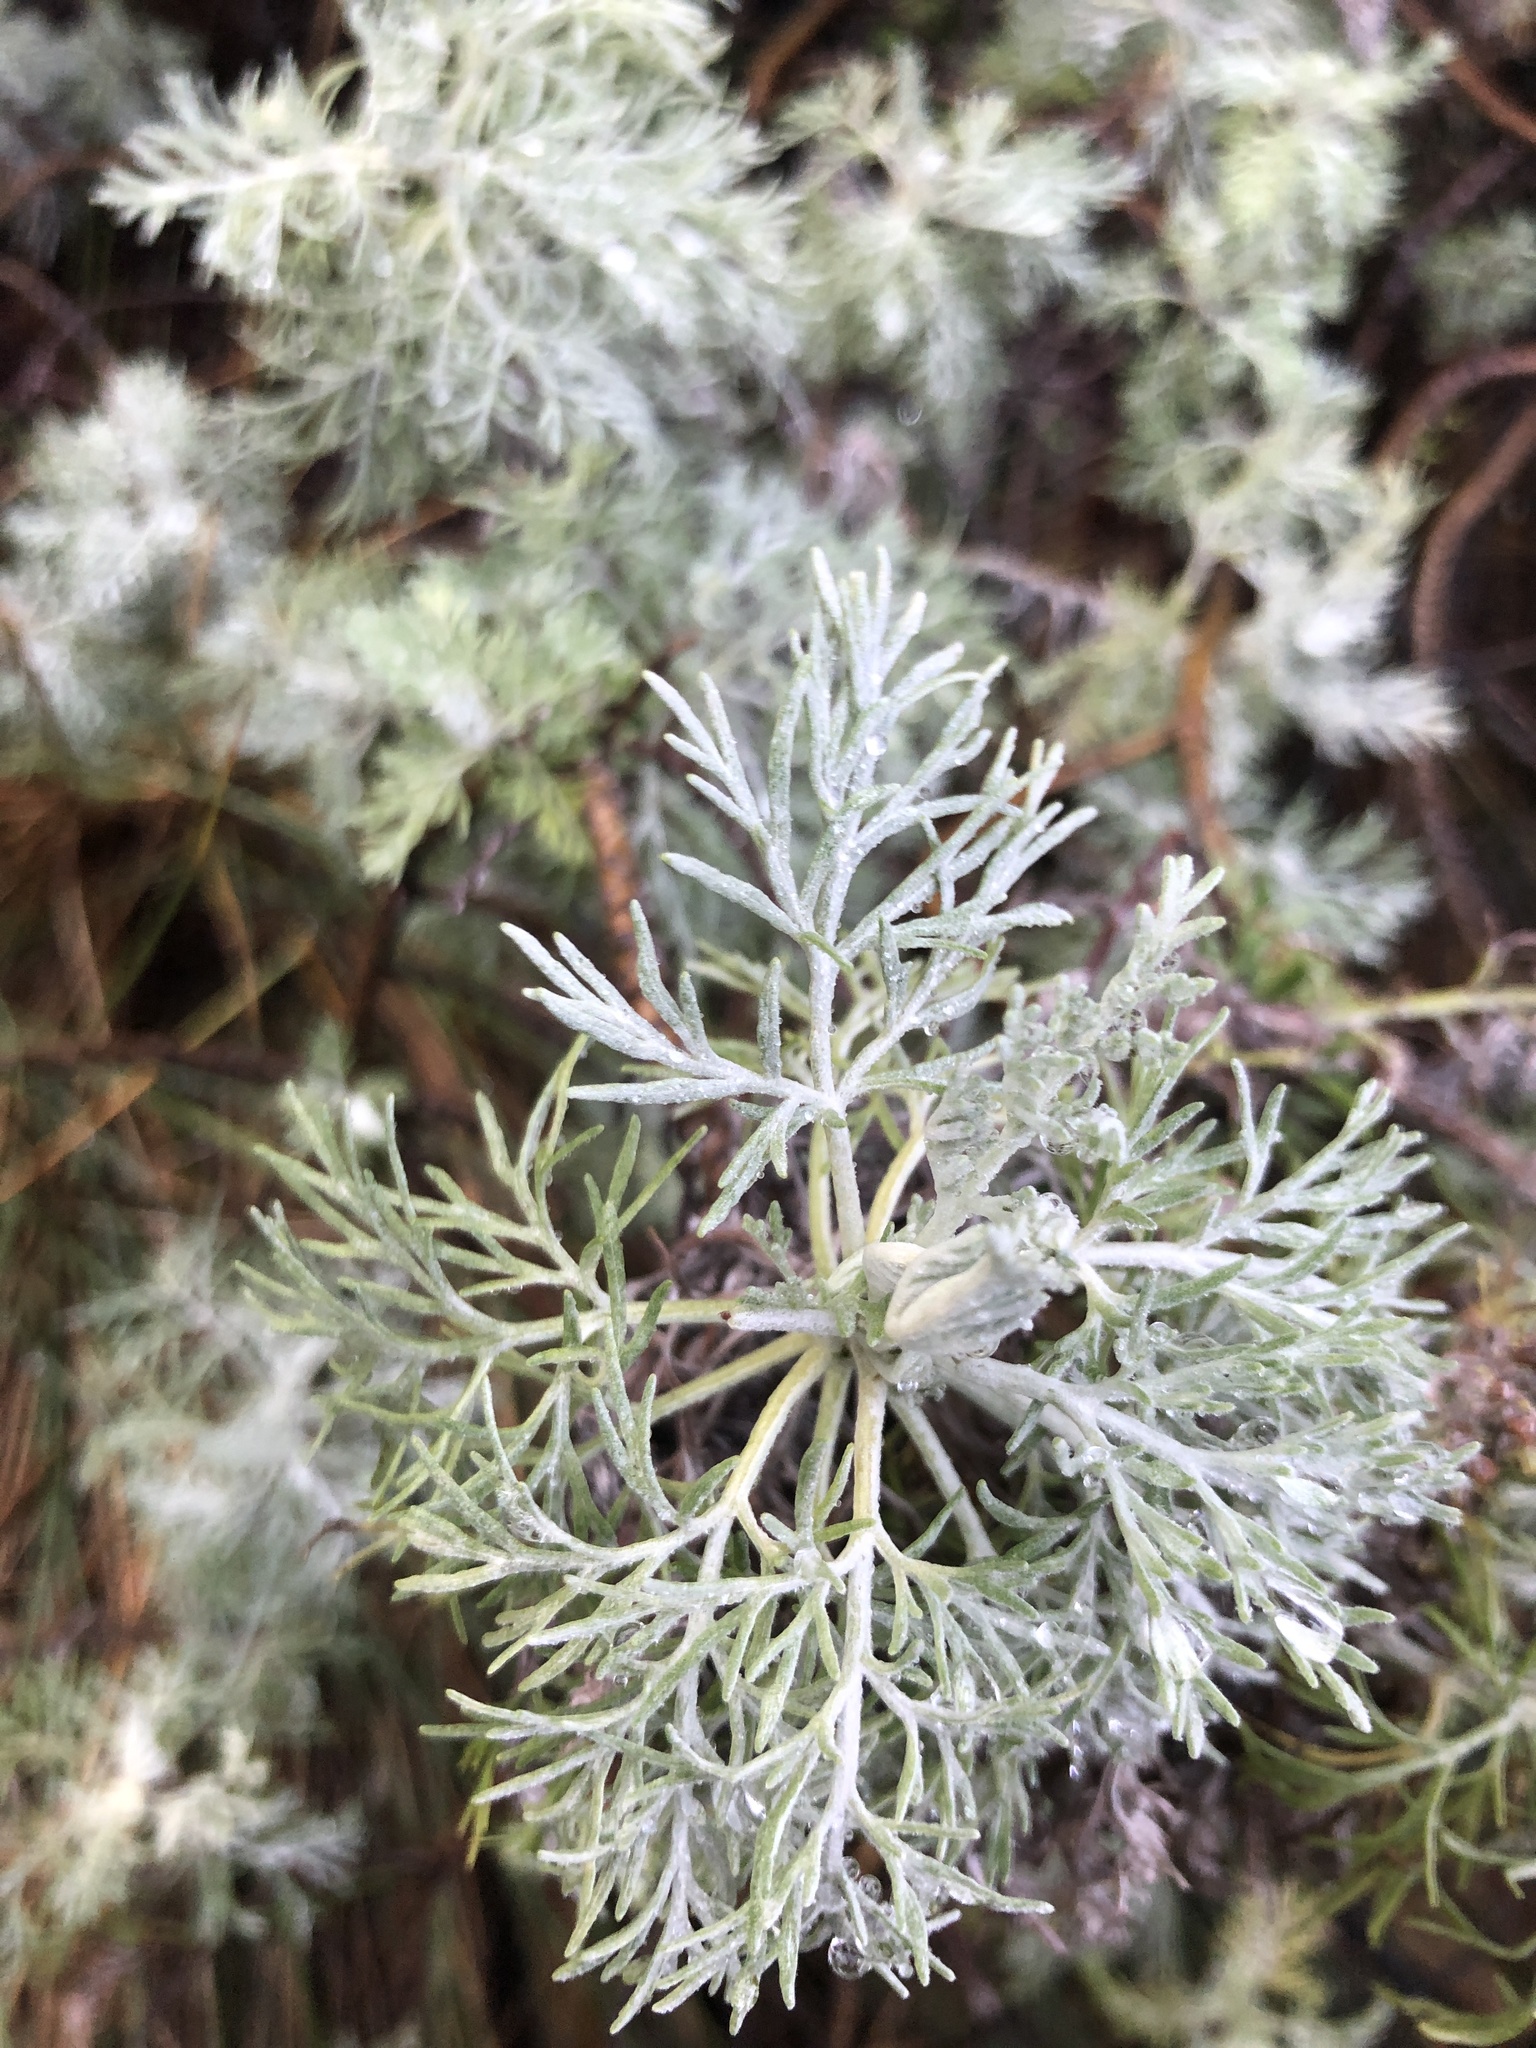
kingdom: Plantae
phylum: Tracheophyta
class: Magnoliopsida
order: Asterales
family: Asteraceae
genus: Artemisia
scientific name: Artemisia mauiensis
